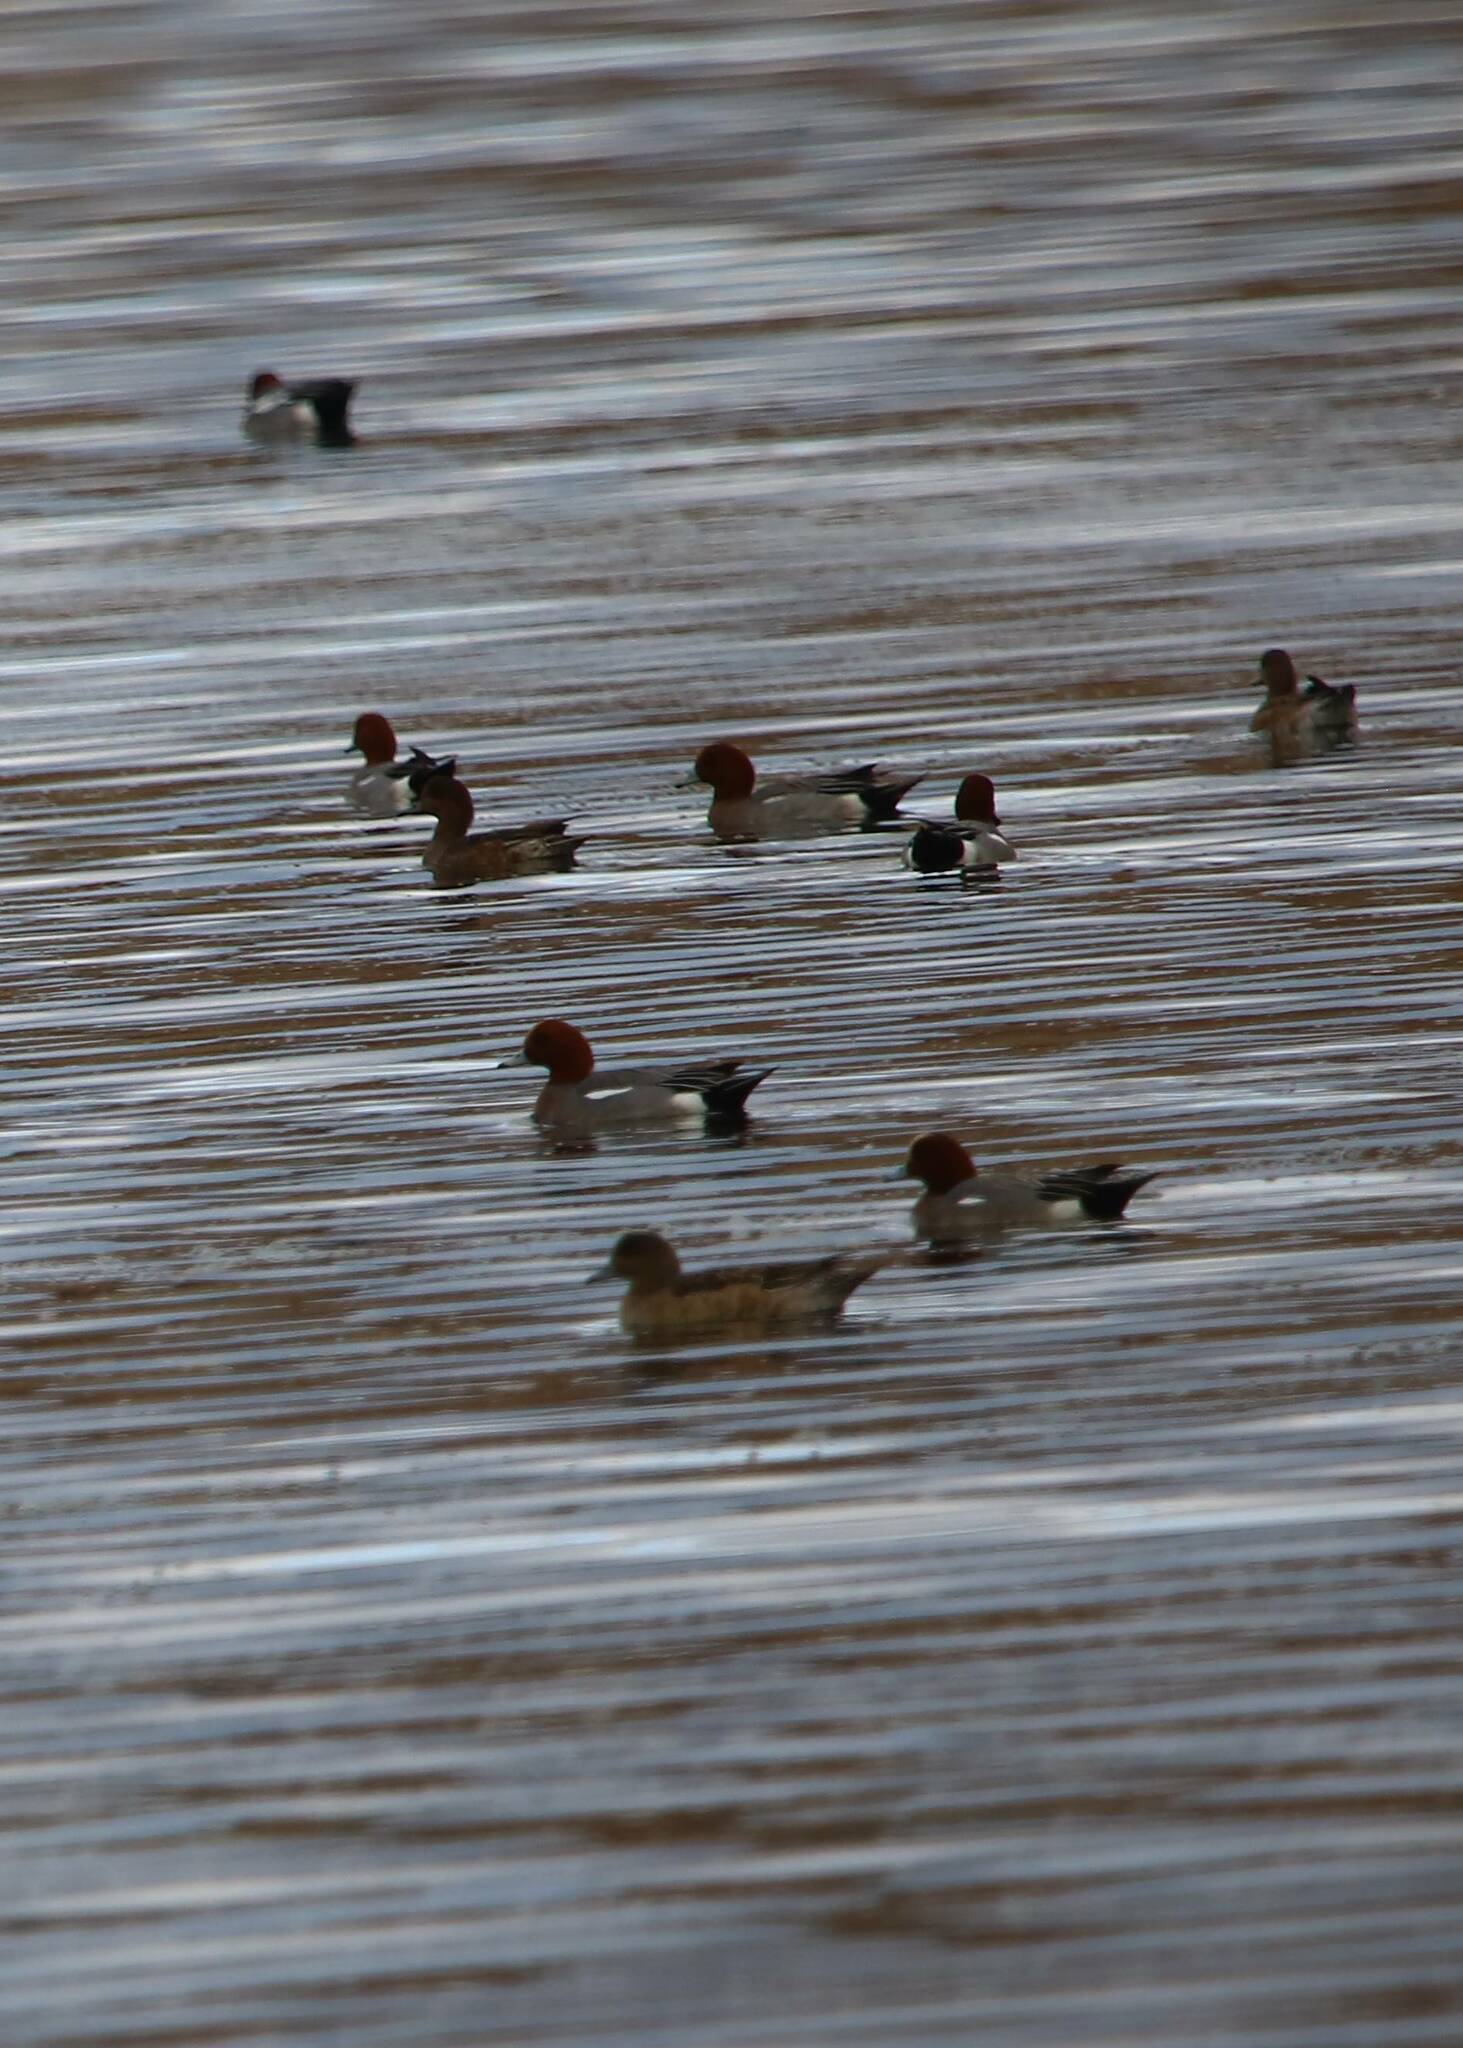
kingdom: Animalia
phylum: Chordata
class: Aves
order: Anseriformes
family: Anatidae
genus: Mareca
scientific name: Mareca penelope
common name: Eurasian wigeon
